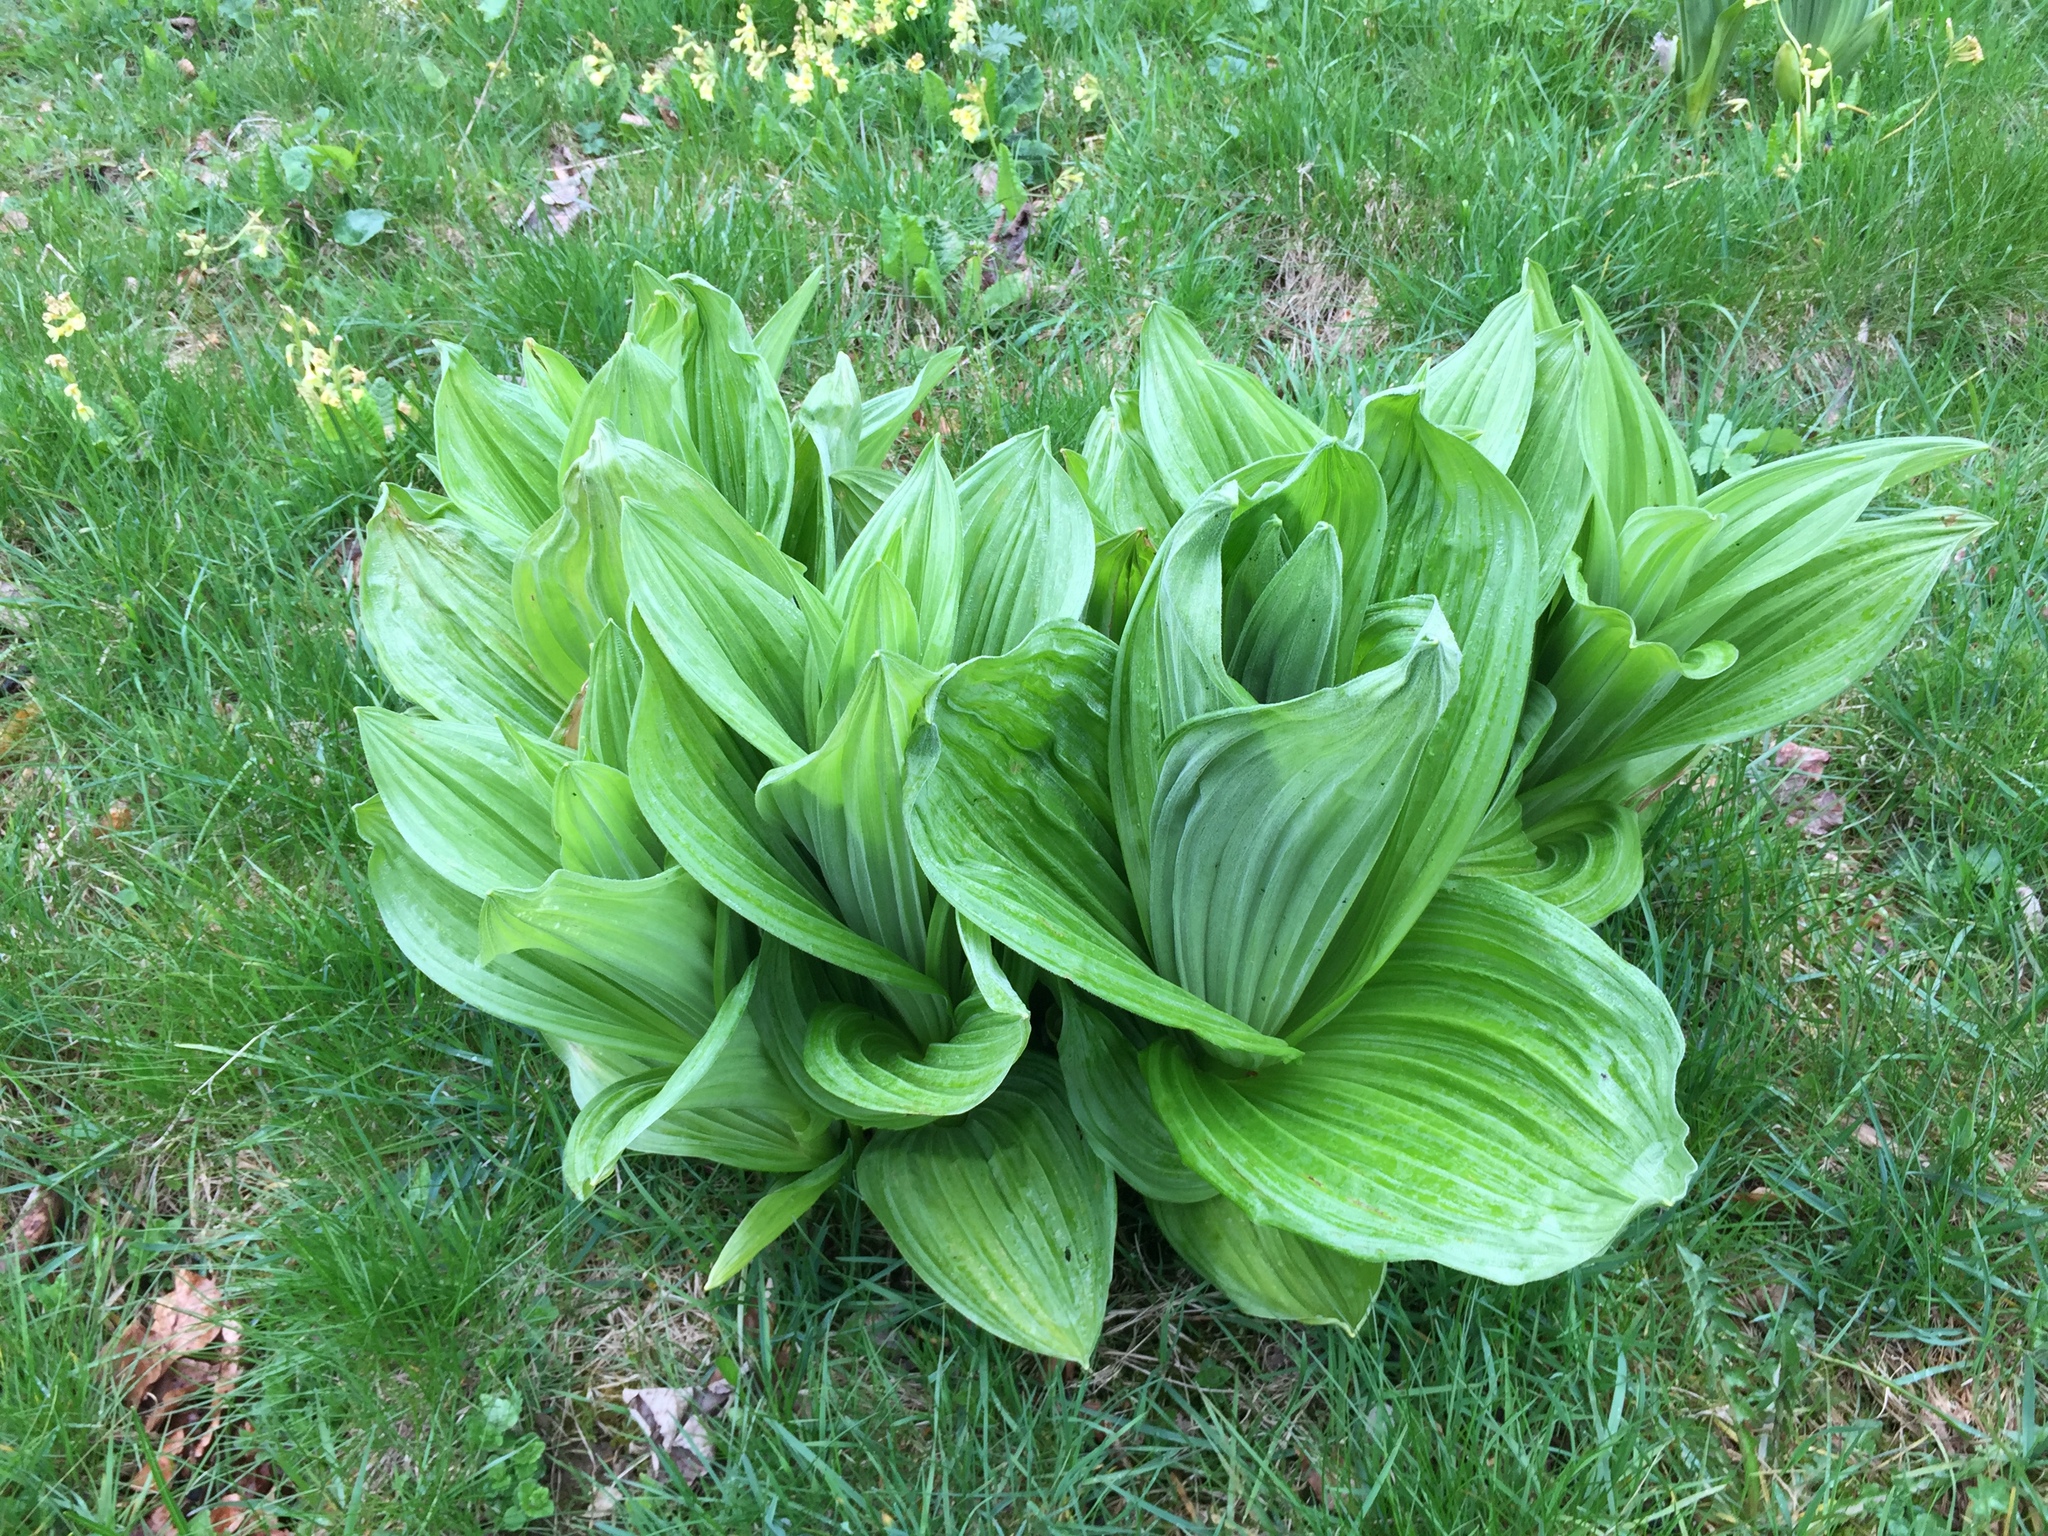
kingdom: Plantae
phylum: Tracheophyta
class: Liliopsida
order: Liliales
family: Melanthiaceae
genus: Veratrum
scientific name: Veratrum album
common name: White veratrum
